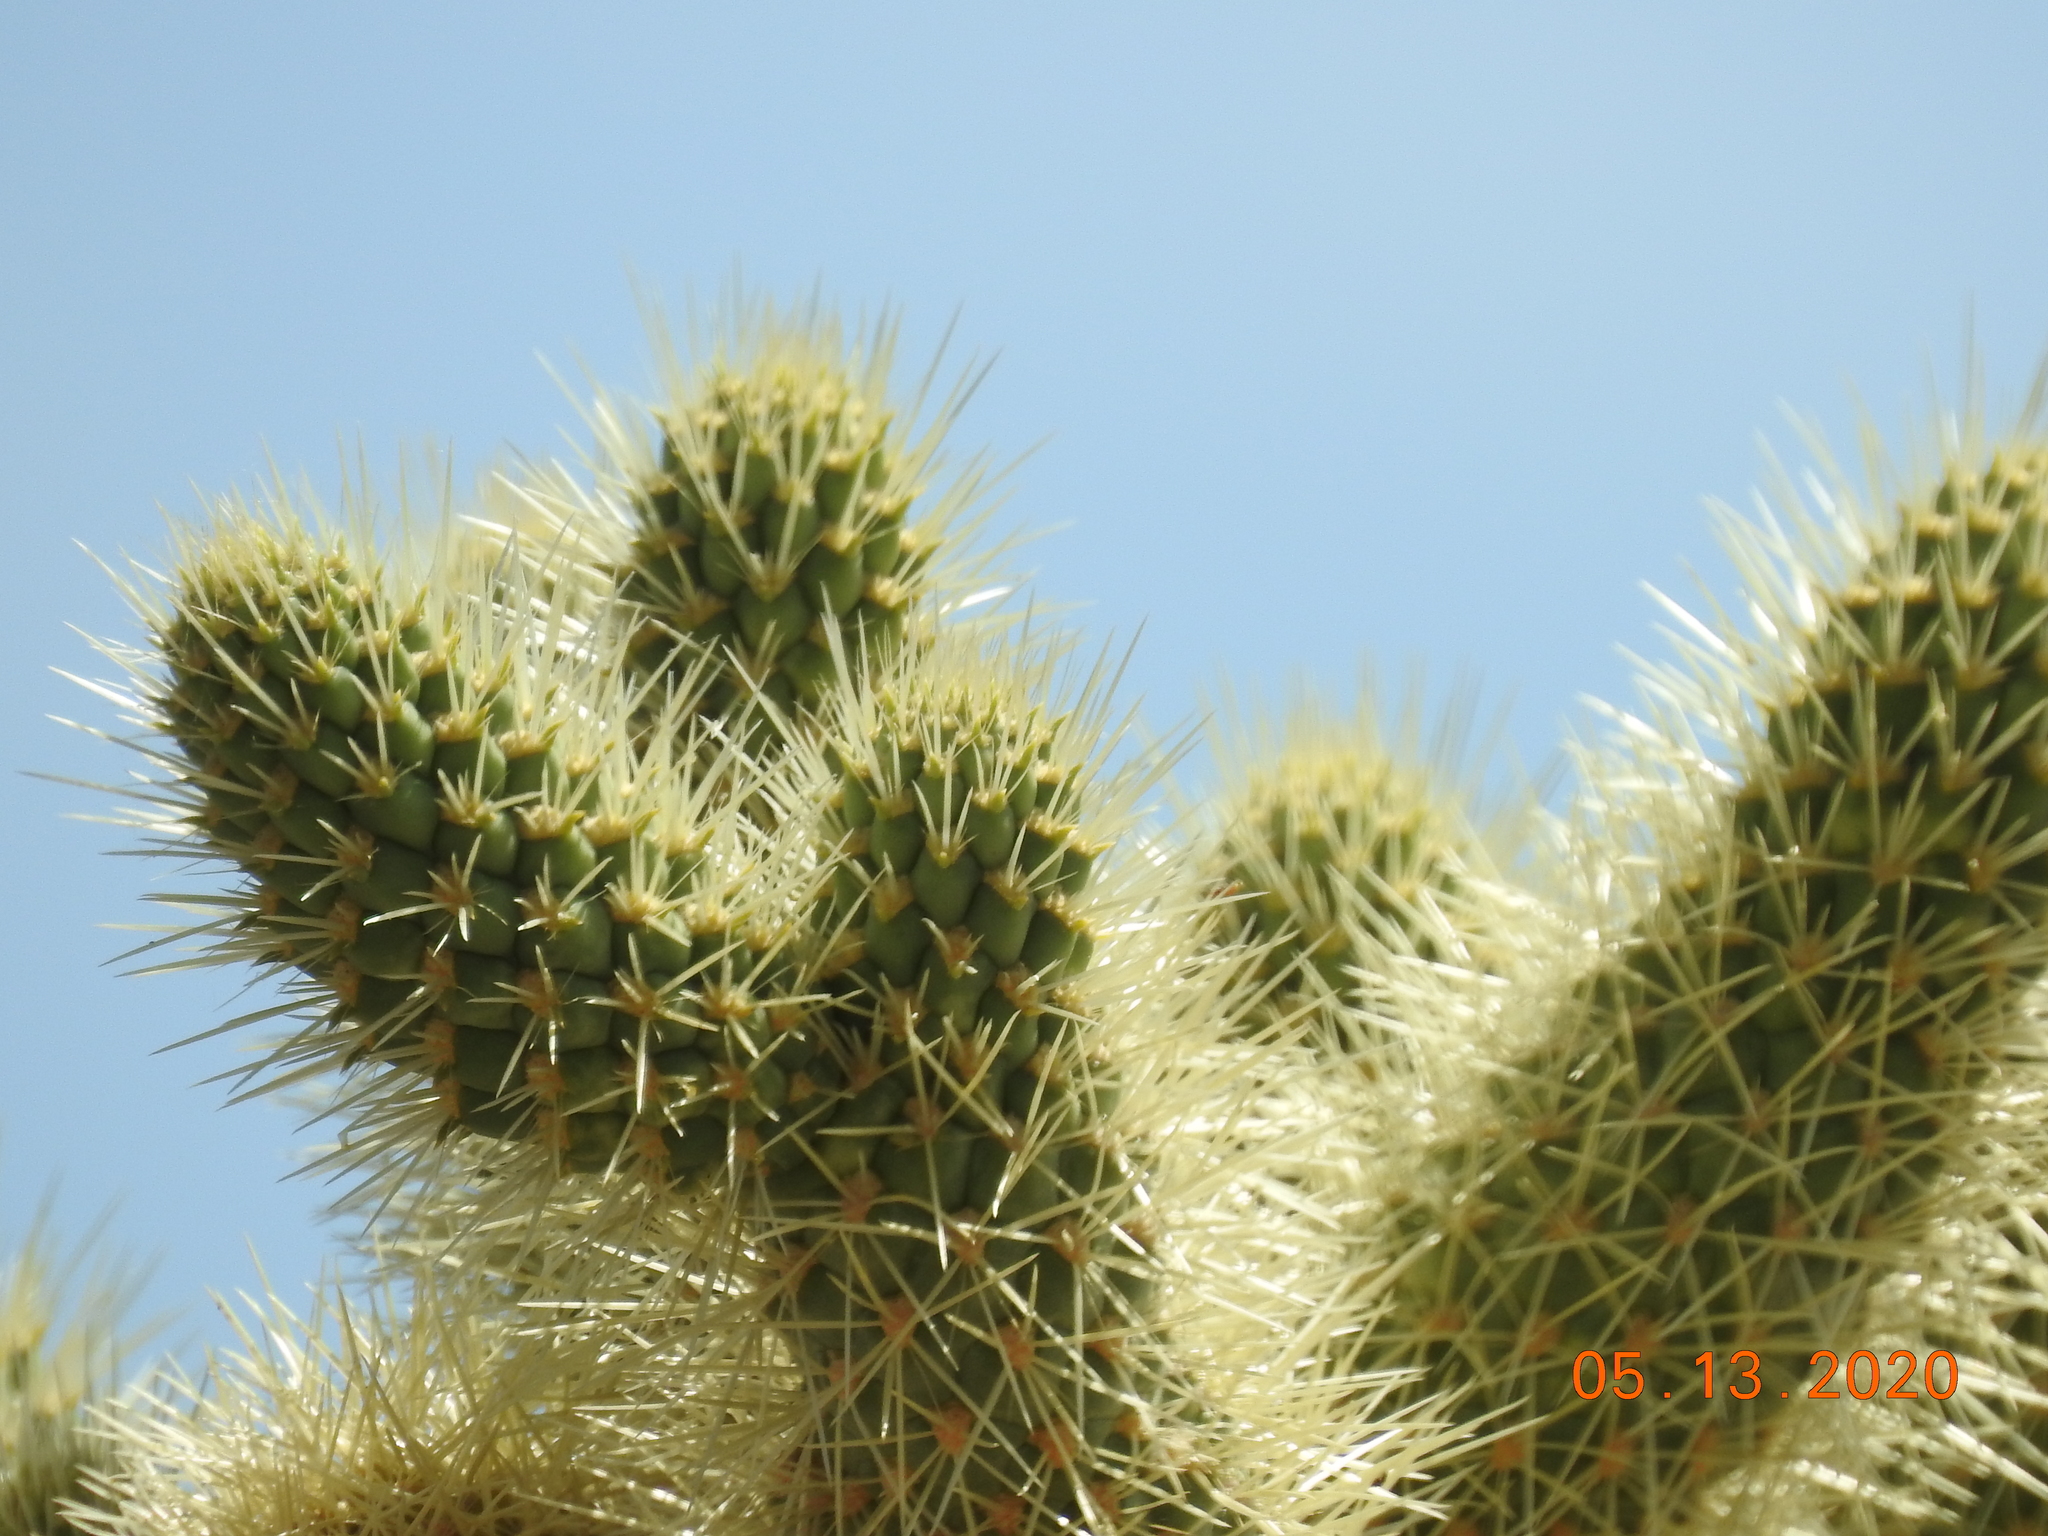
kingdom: Plantae
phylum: Tracheophyta
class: Magnoliopsida
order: Caryophyllales
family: Cactaceae
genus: Cylindropuntia
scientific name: Cylindropuntia fosbergii
